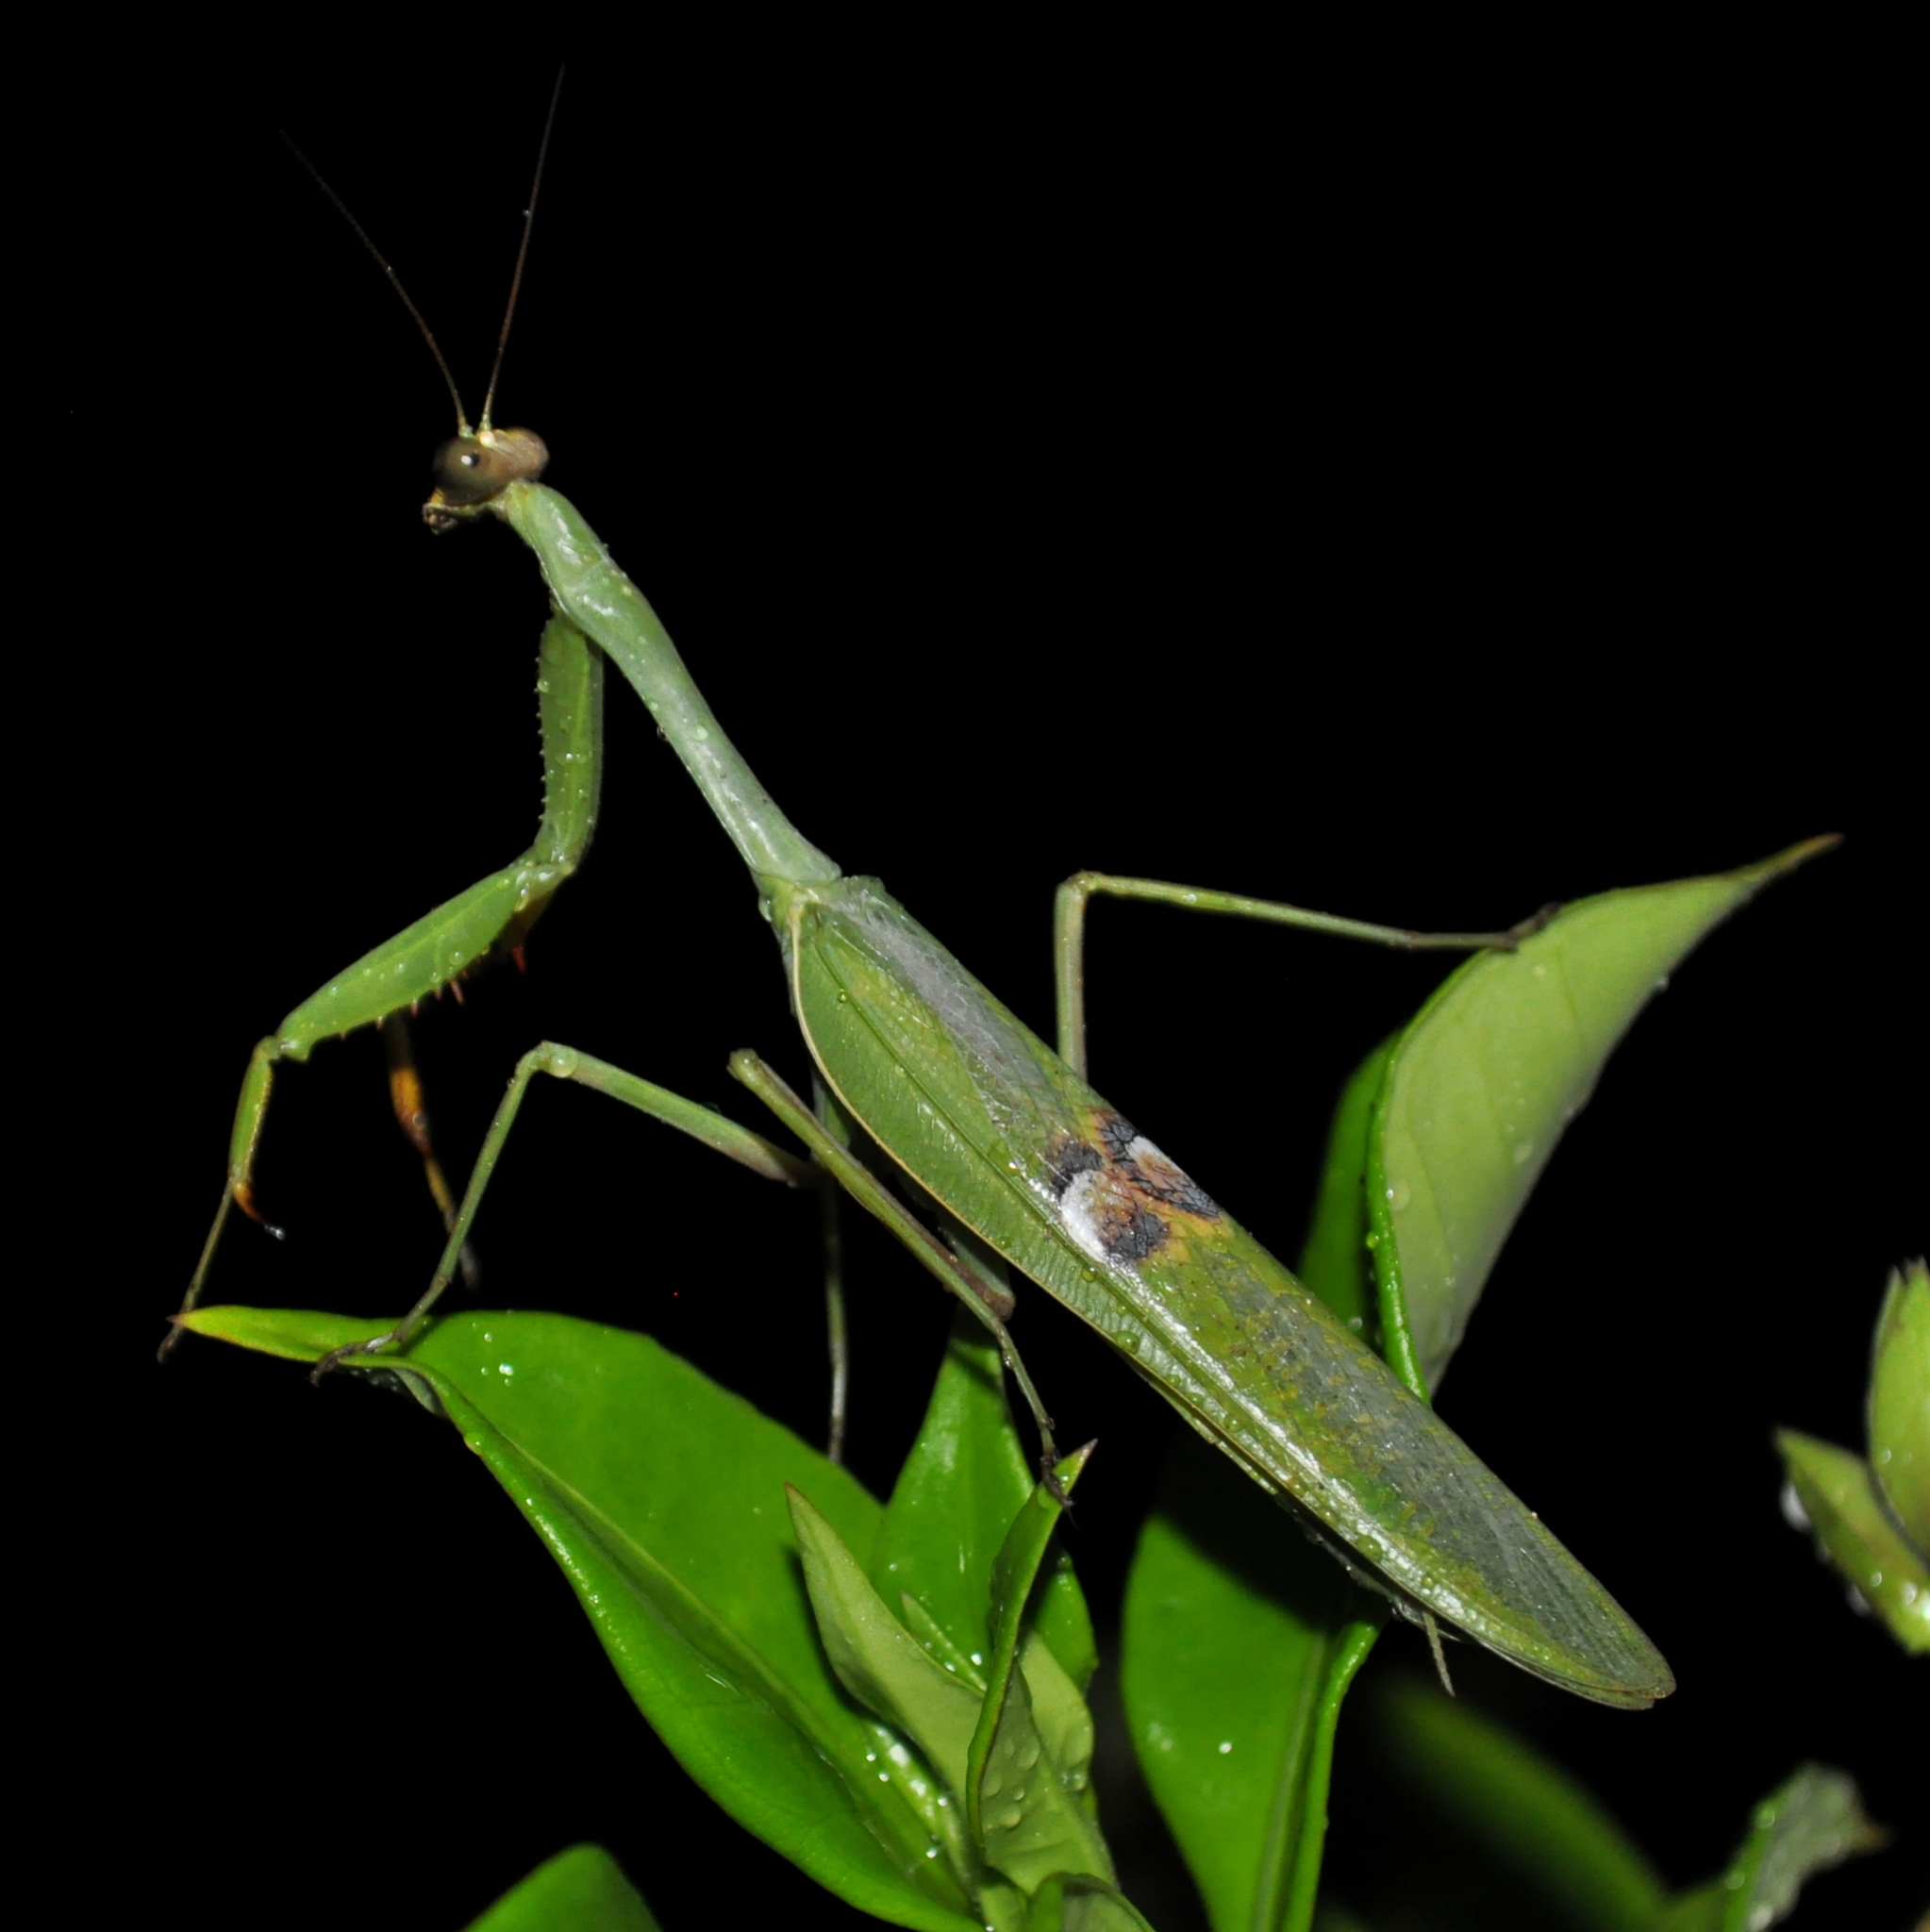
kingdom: Animalia
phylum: Arthropoda
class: Insecta
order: Mantodea
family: Mantidae
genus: Stagmatoptera
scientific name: Stagmatoptera hyaloptera
